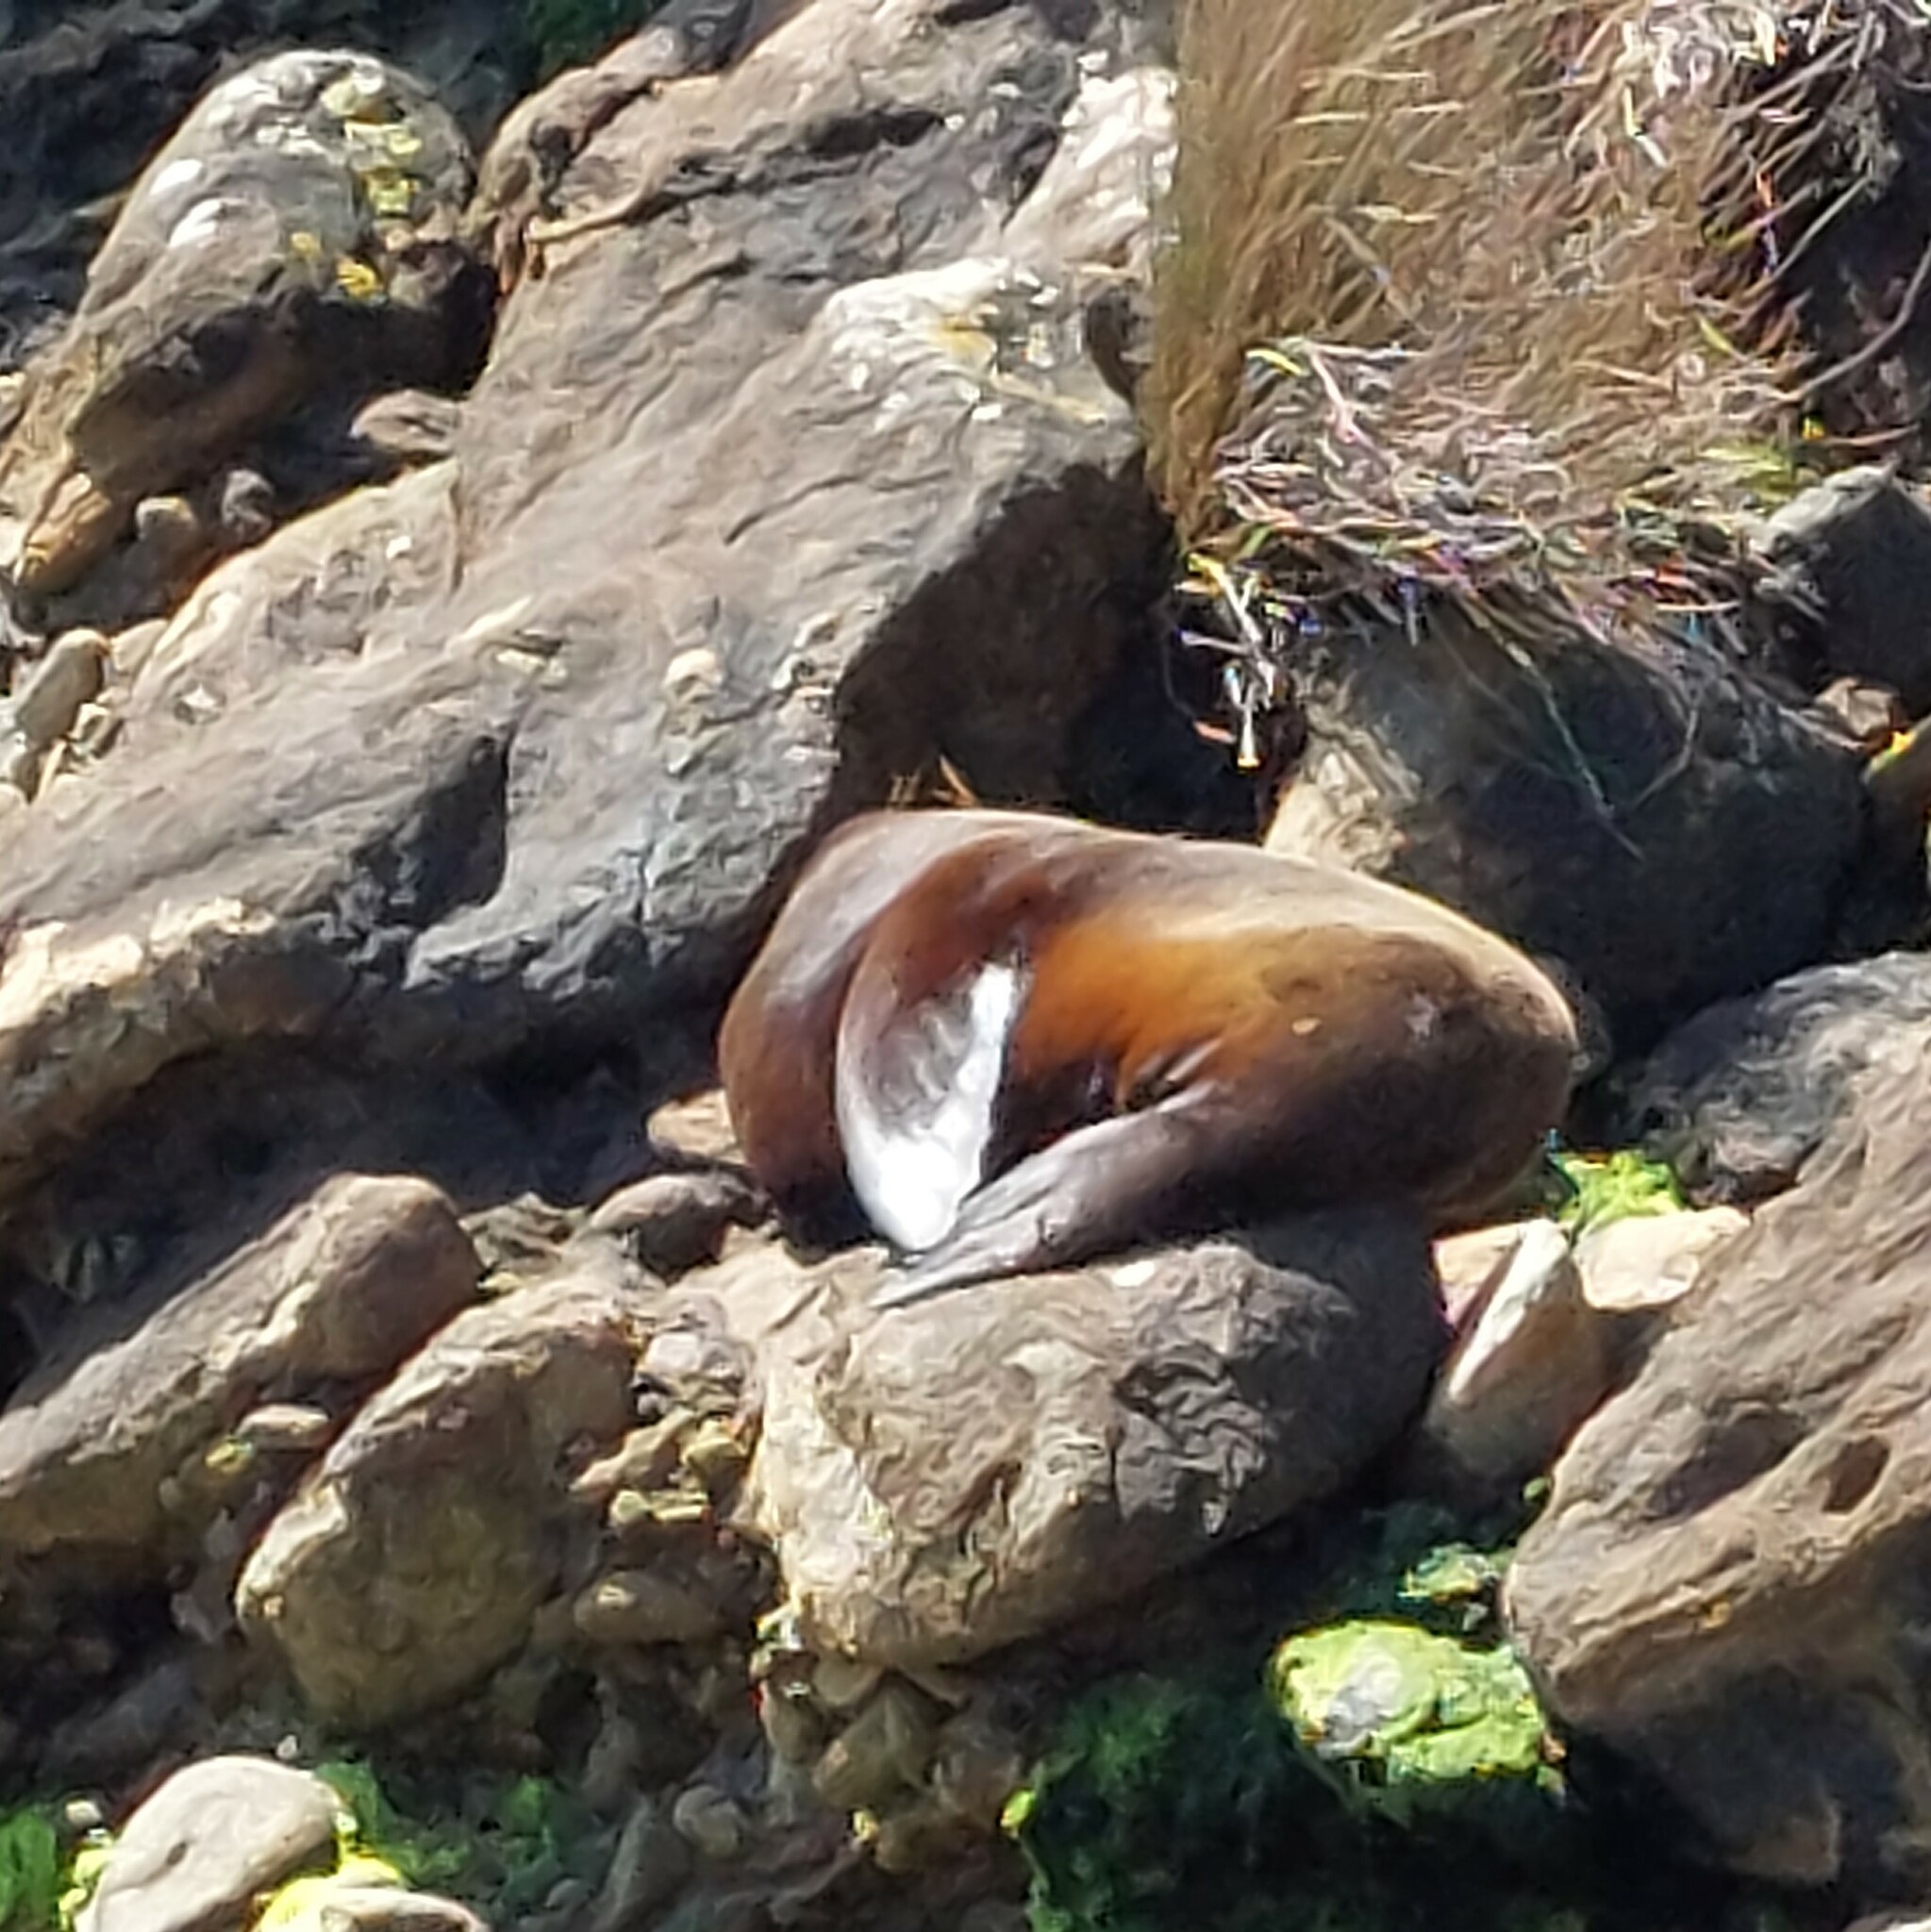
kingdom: Animalia
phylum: Chordata
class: Mammalia
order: Carnivora
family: Otariidae
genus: Arctocephalus
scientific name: Arctocephalus forsteri
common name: New zealand fur seal
